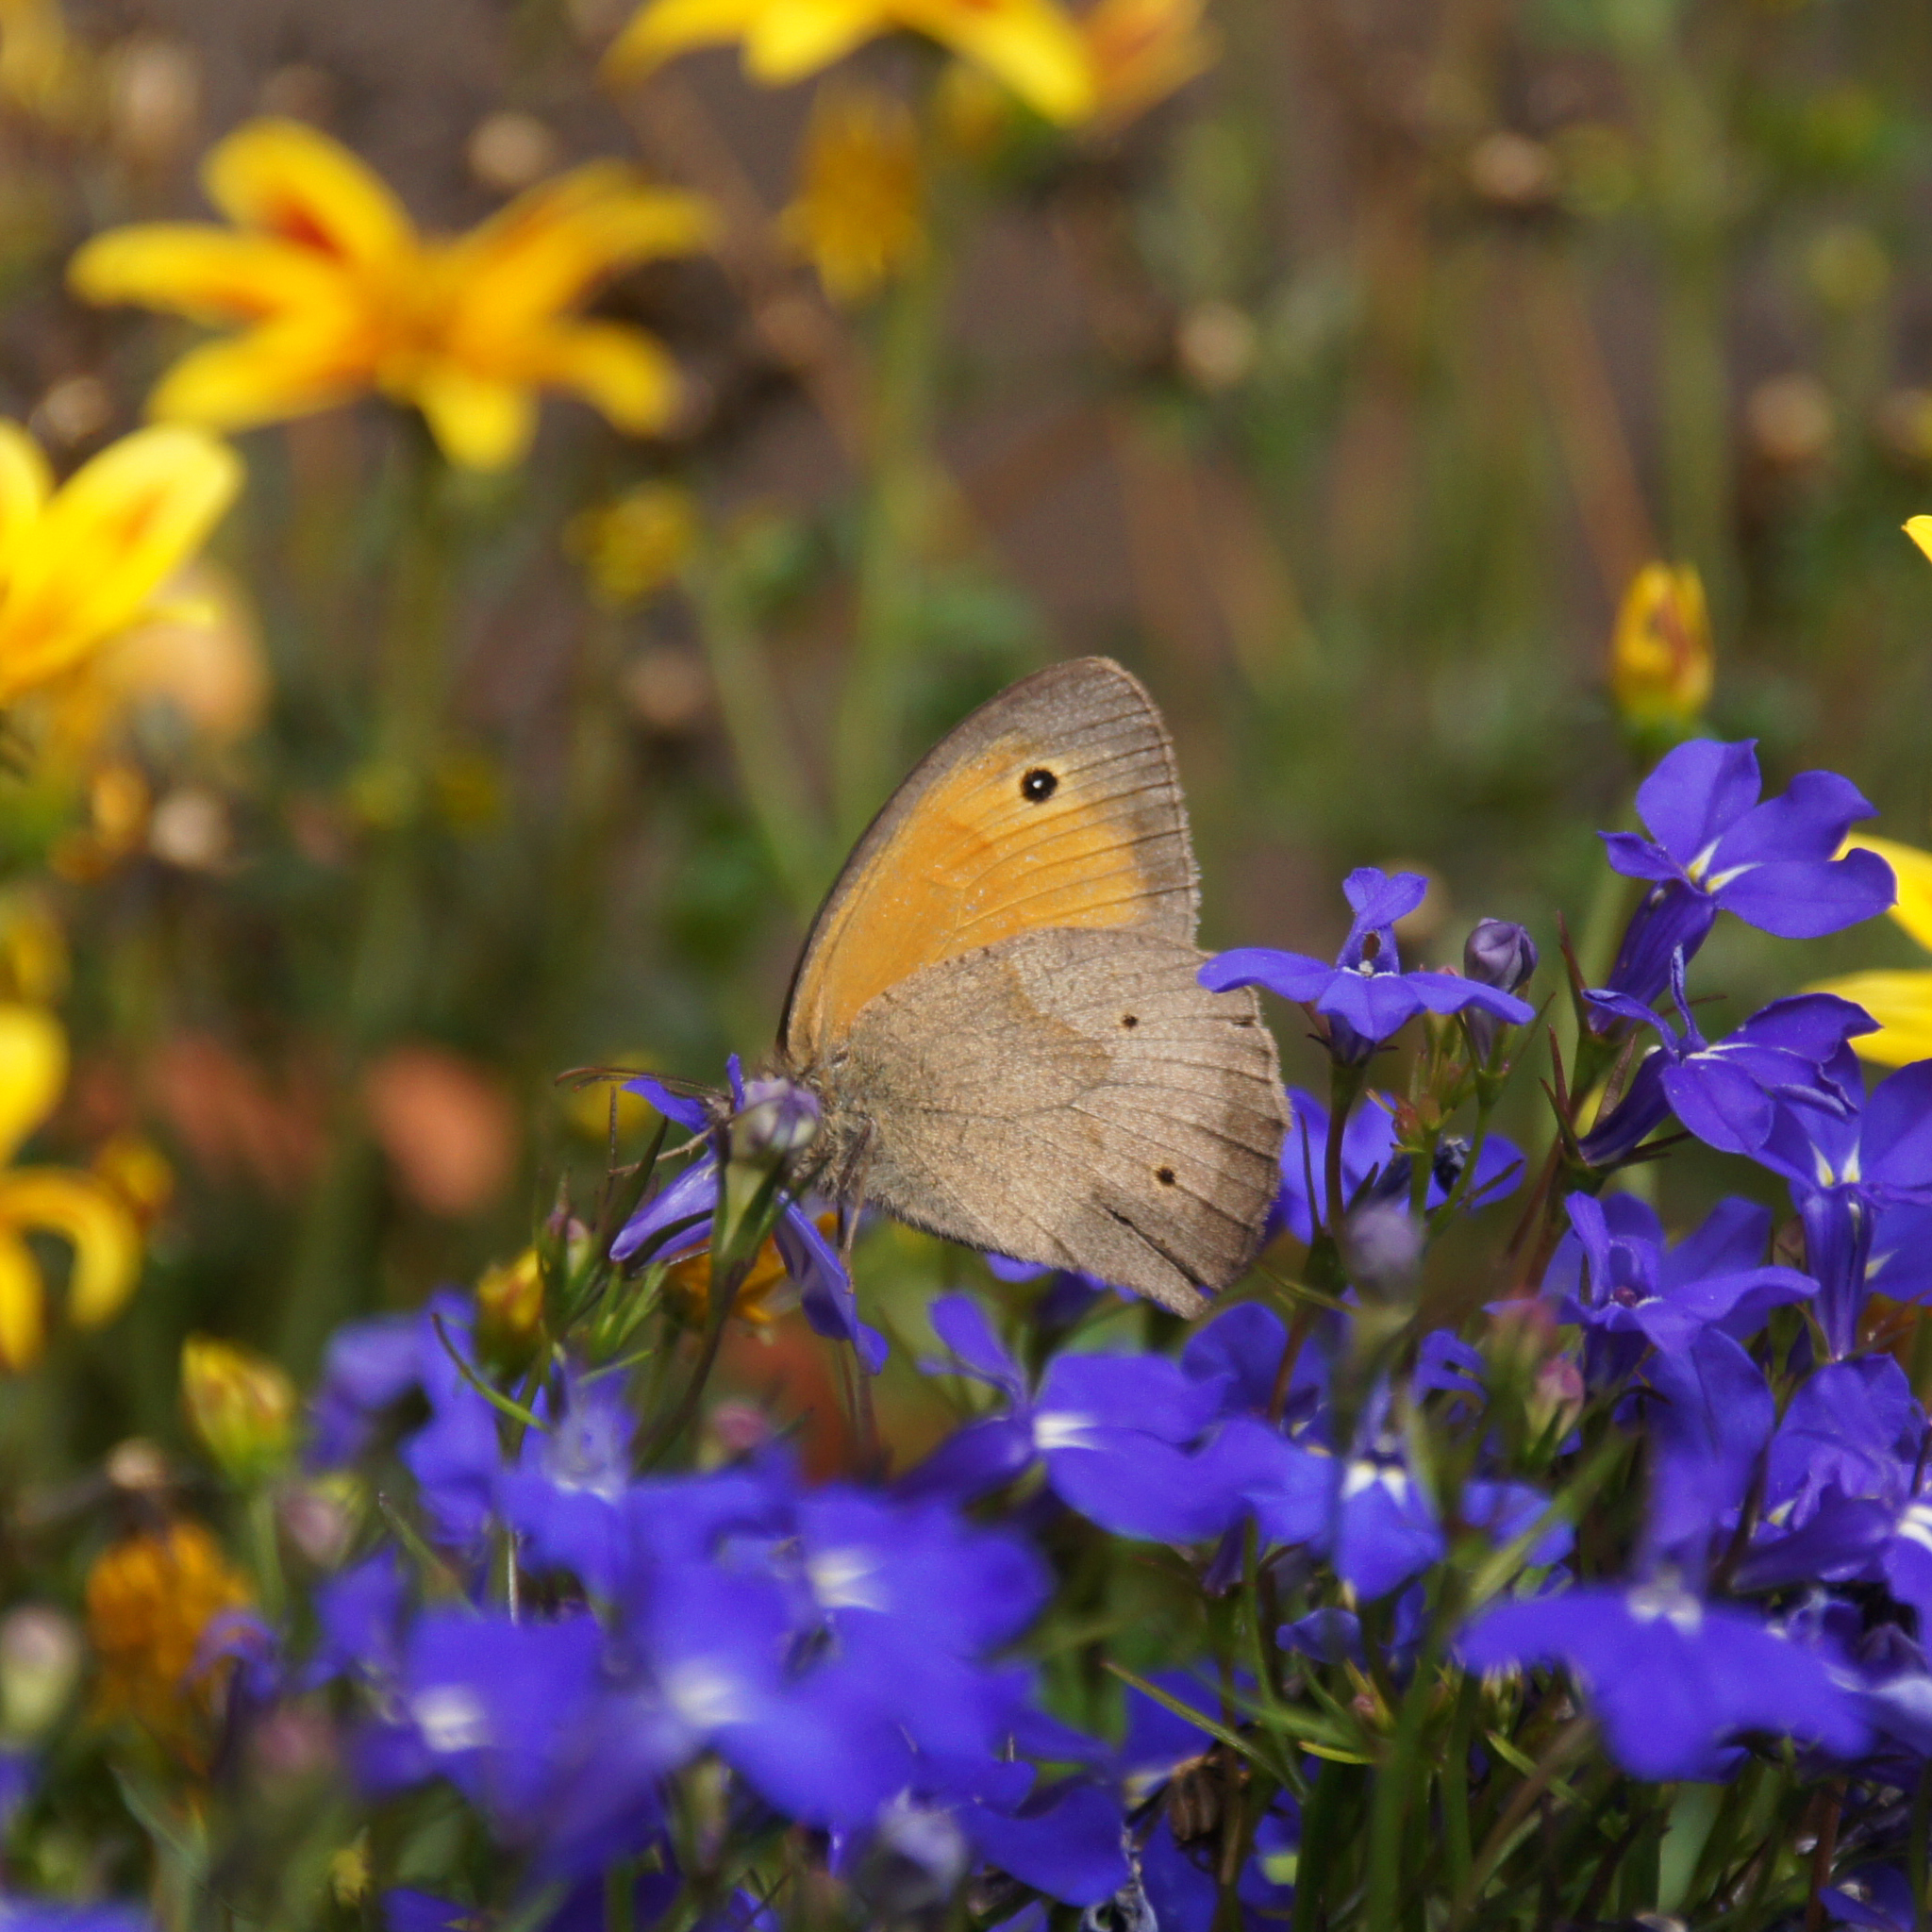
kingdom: Animalia
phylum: Arthropoda
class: Insecta
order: Lepidoptera
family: Nymphalidae
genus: Maniola
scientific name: Maniola jurtina
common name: Meadow brown
